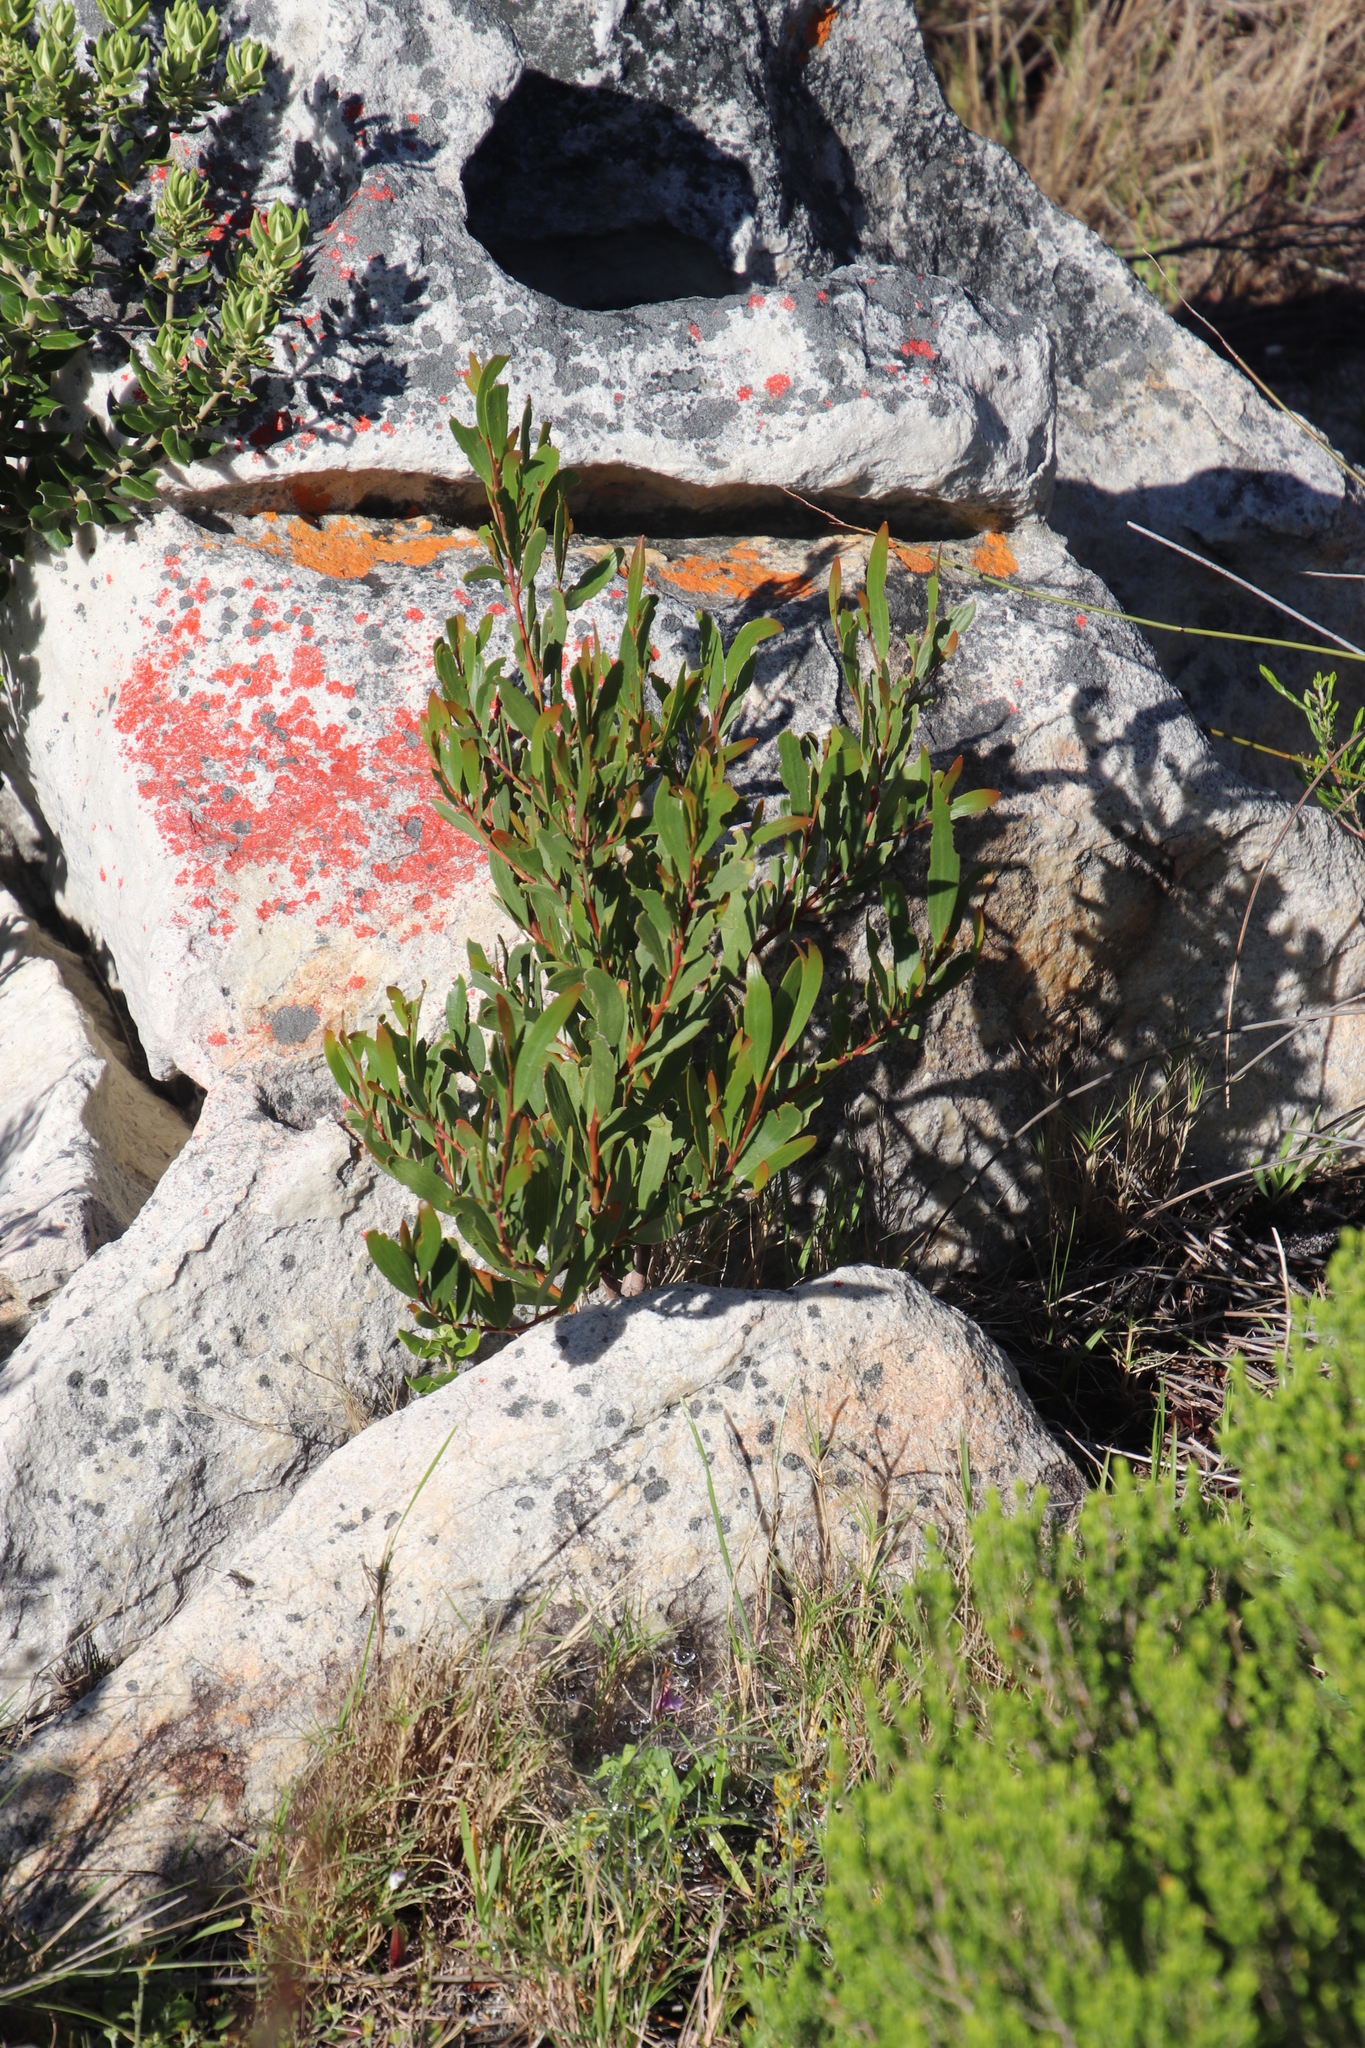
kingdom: Plantae
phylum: Tracheophyta
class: Magnoliopsida
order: Fabales
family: Fabaceae
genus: Acacia
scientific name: Acacia cyclops
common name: Coastal wattle
